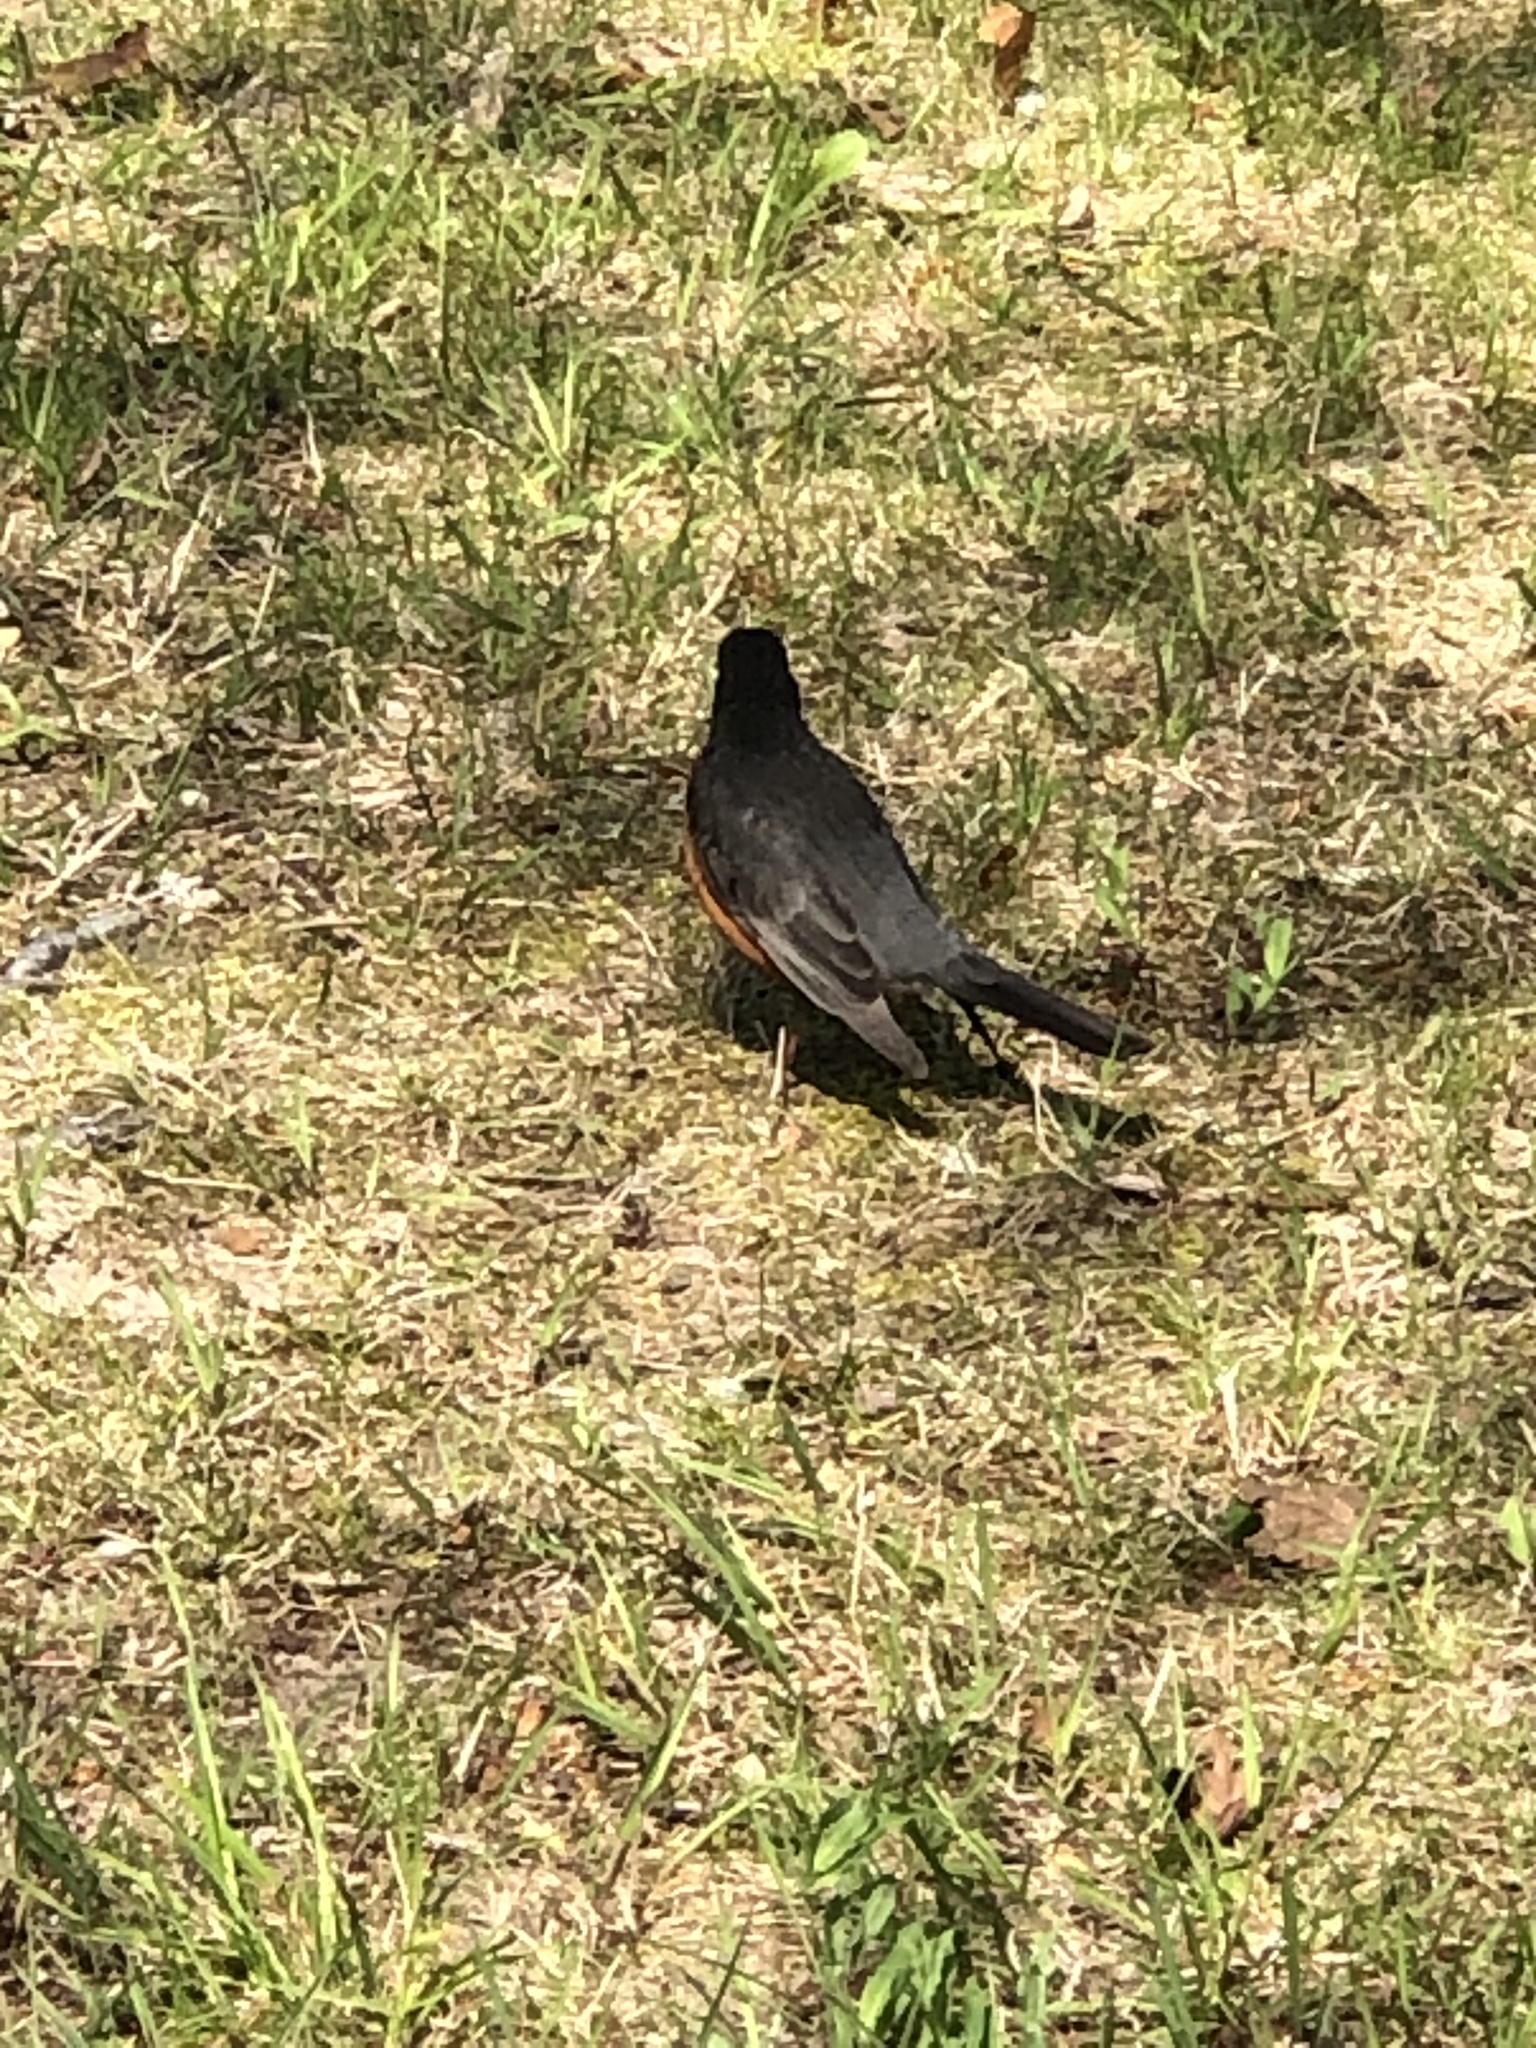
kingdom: Animalia
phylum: Chordata
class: Aves
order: Passeriformes
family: Turdidae
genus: Turdus
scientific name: Turdus migratorius
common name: American robin
